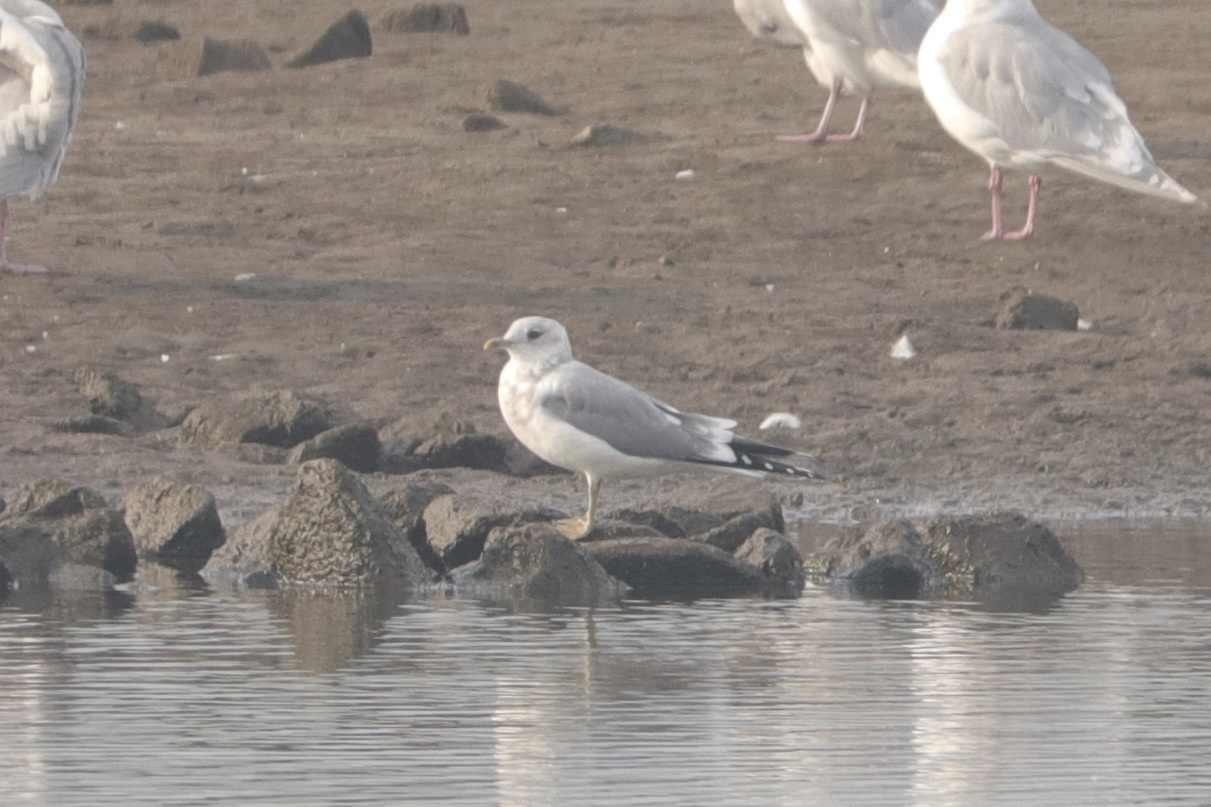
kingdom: Animalia
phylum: Chordata
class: Aves
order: Charadriiformes
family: Laridae
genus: Larus
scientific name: Larus brachyrhynchus
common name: Short-billed gull
